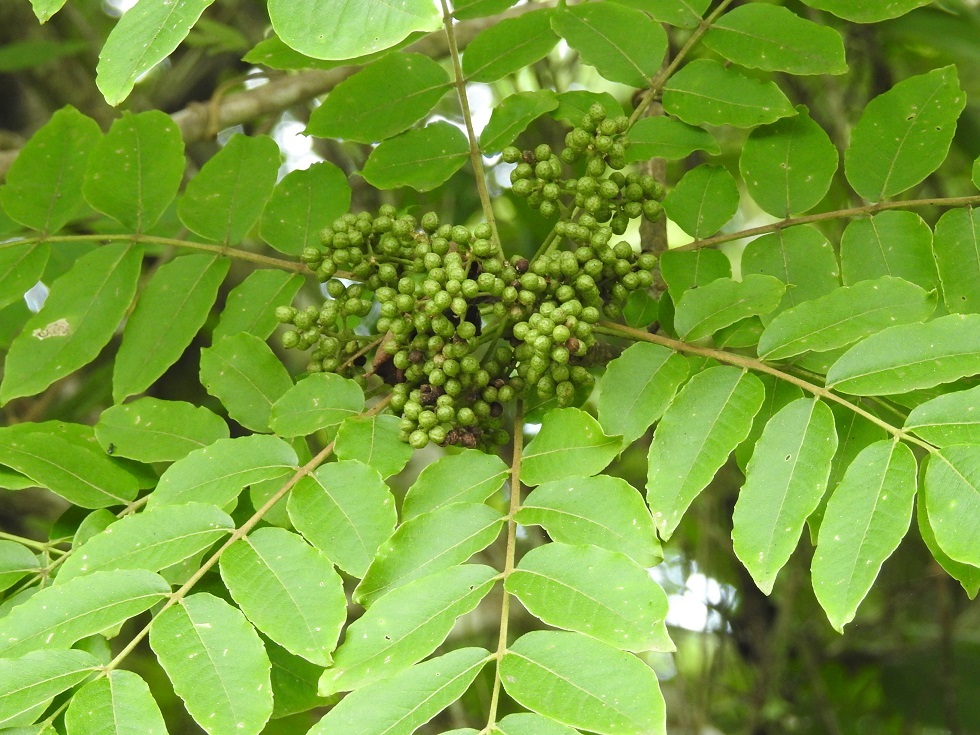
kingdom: Plantae
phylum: Tracheophyta
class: Magnoliopsida
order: Sapindales
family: Rutaceae
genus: Zanthoxylum
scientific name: Zanthoxylum rhoifolium
